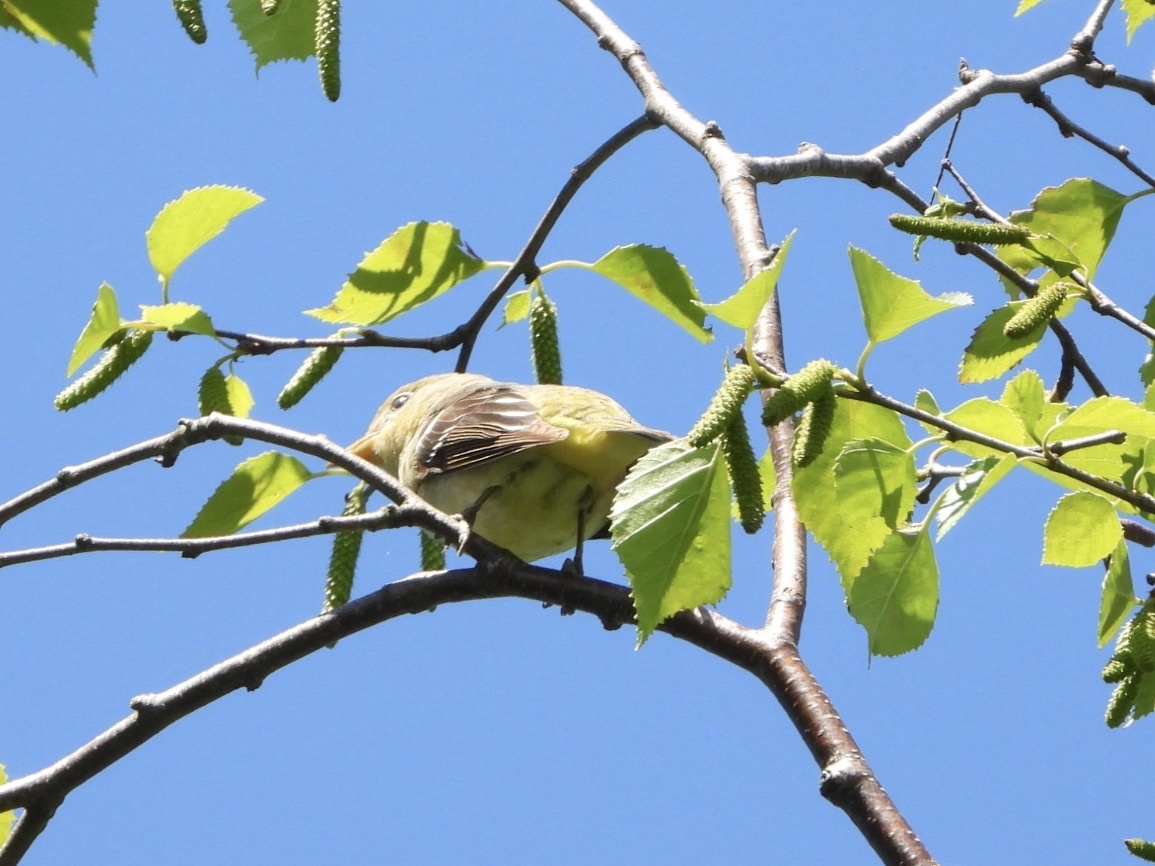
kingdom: Animalia
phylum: Chordata
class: Aves
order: Passeriformes
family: Cardinalidae
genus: Piranga
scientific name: Piranga ludoviciana
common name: Western tanager
